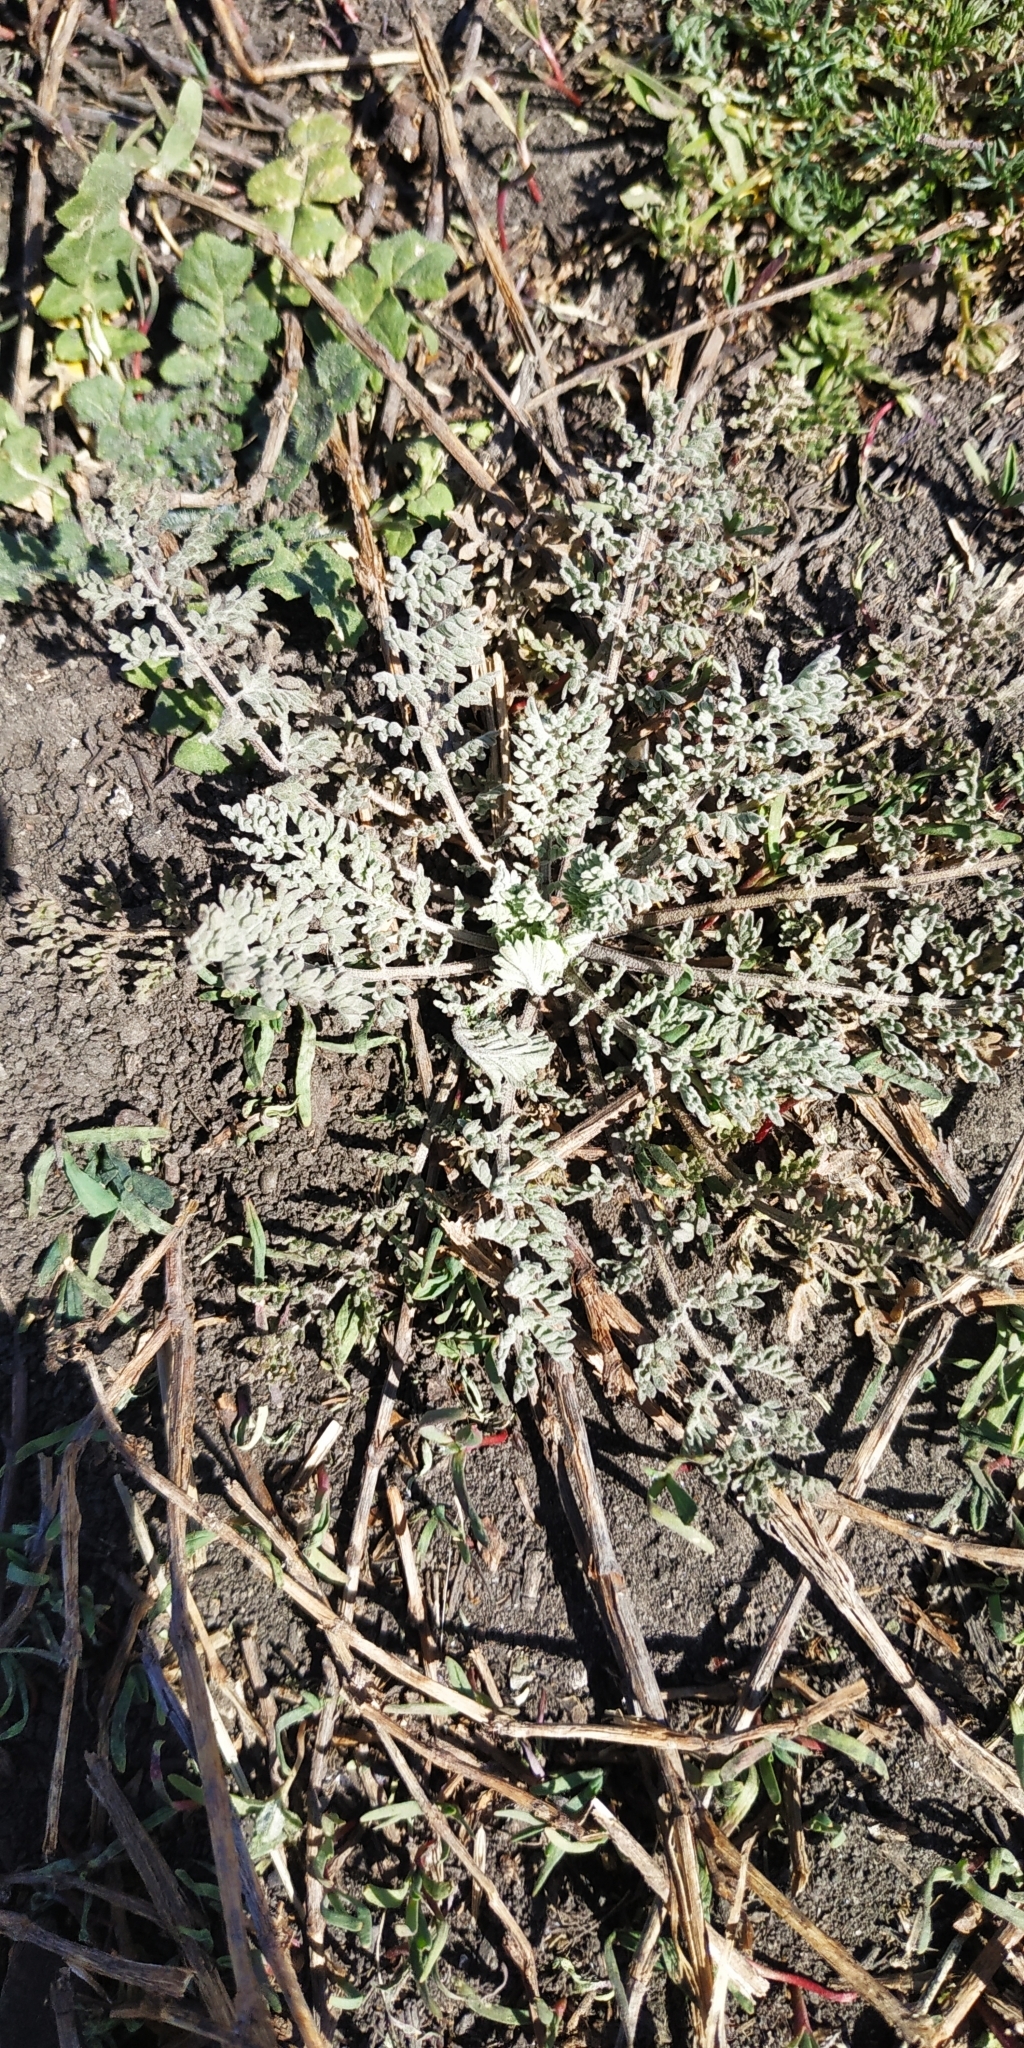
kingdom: Plantae
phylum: Tracheophyta
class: Magnoliopsida
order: Brassicales
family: Brassicaceae
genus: Descurainia
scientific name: Descurainia sophia
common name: Flixweed
